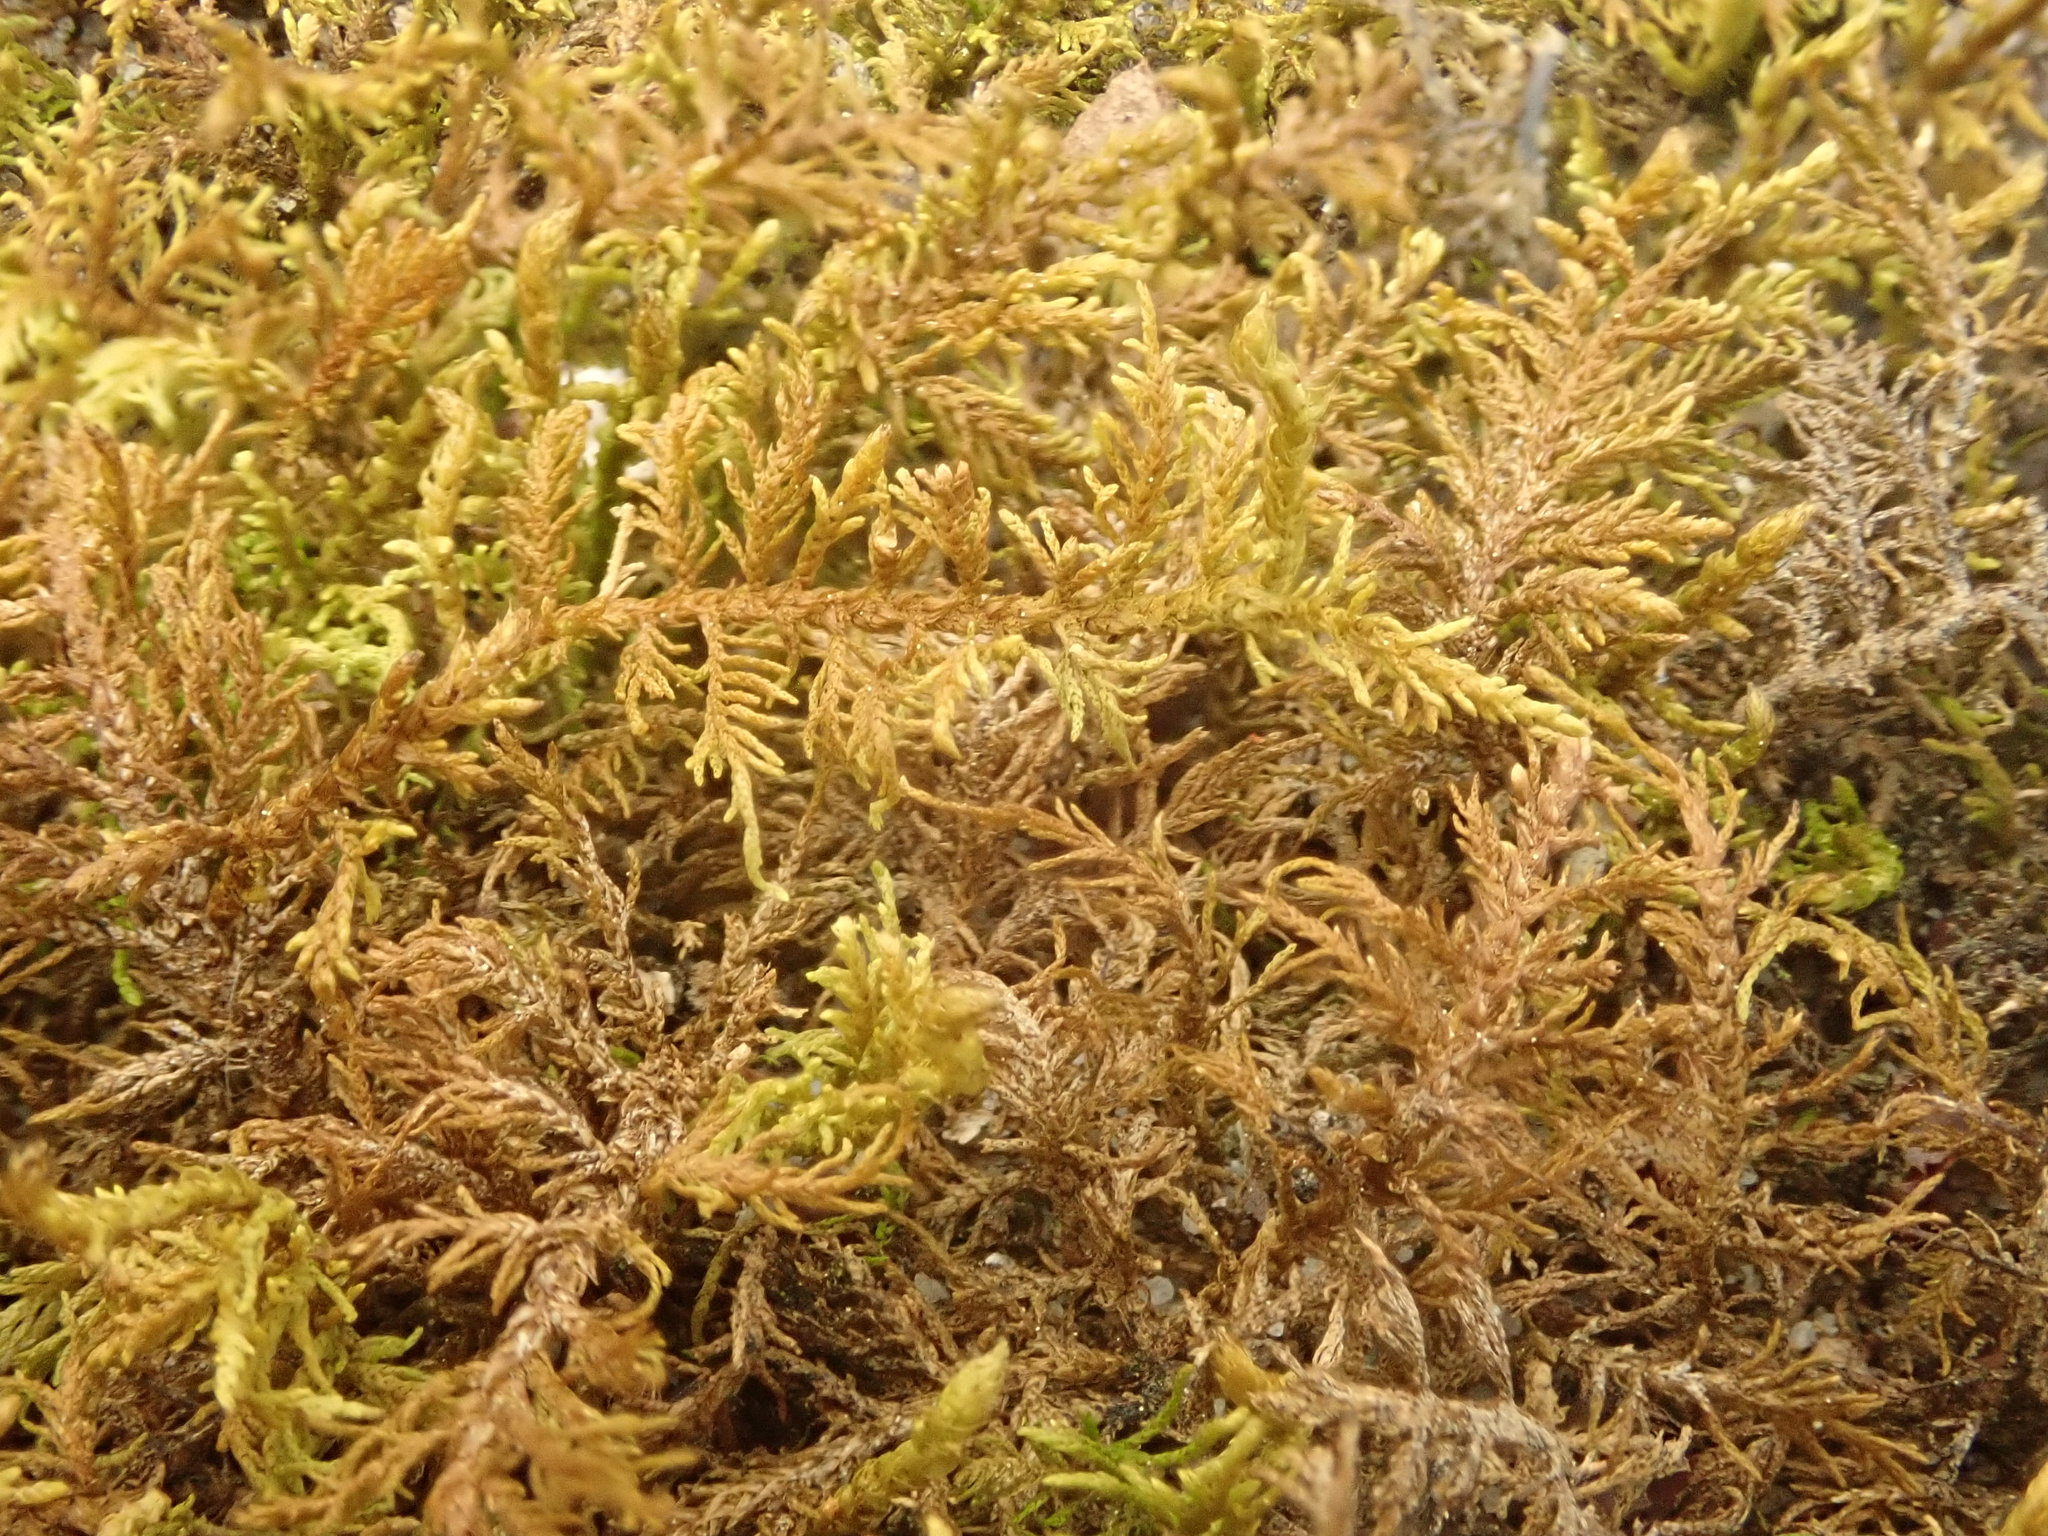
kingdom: Plantae
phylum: Bryophyta
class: Bryopsida
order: Hypnales
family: Thuidiaceae
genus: Thuidium
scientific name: Thuidium delicatulum
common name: Delicate fern moss
